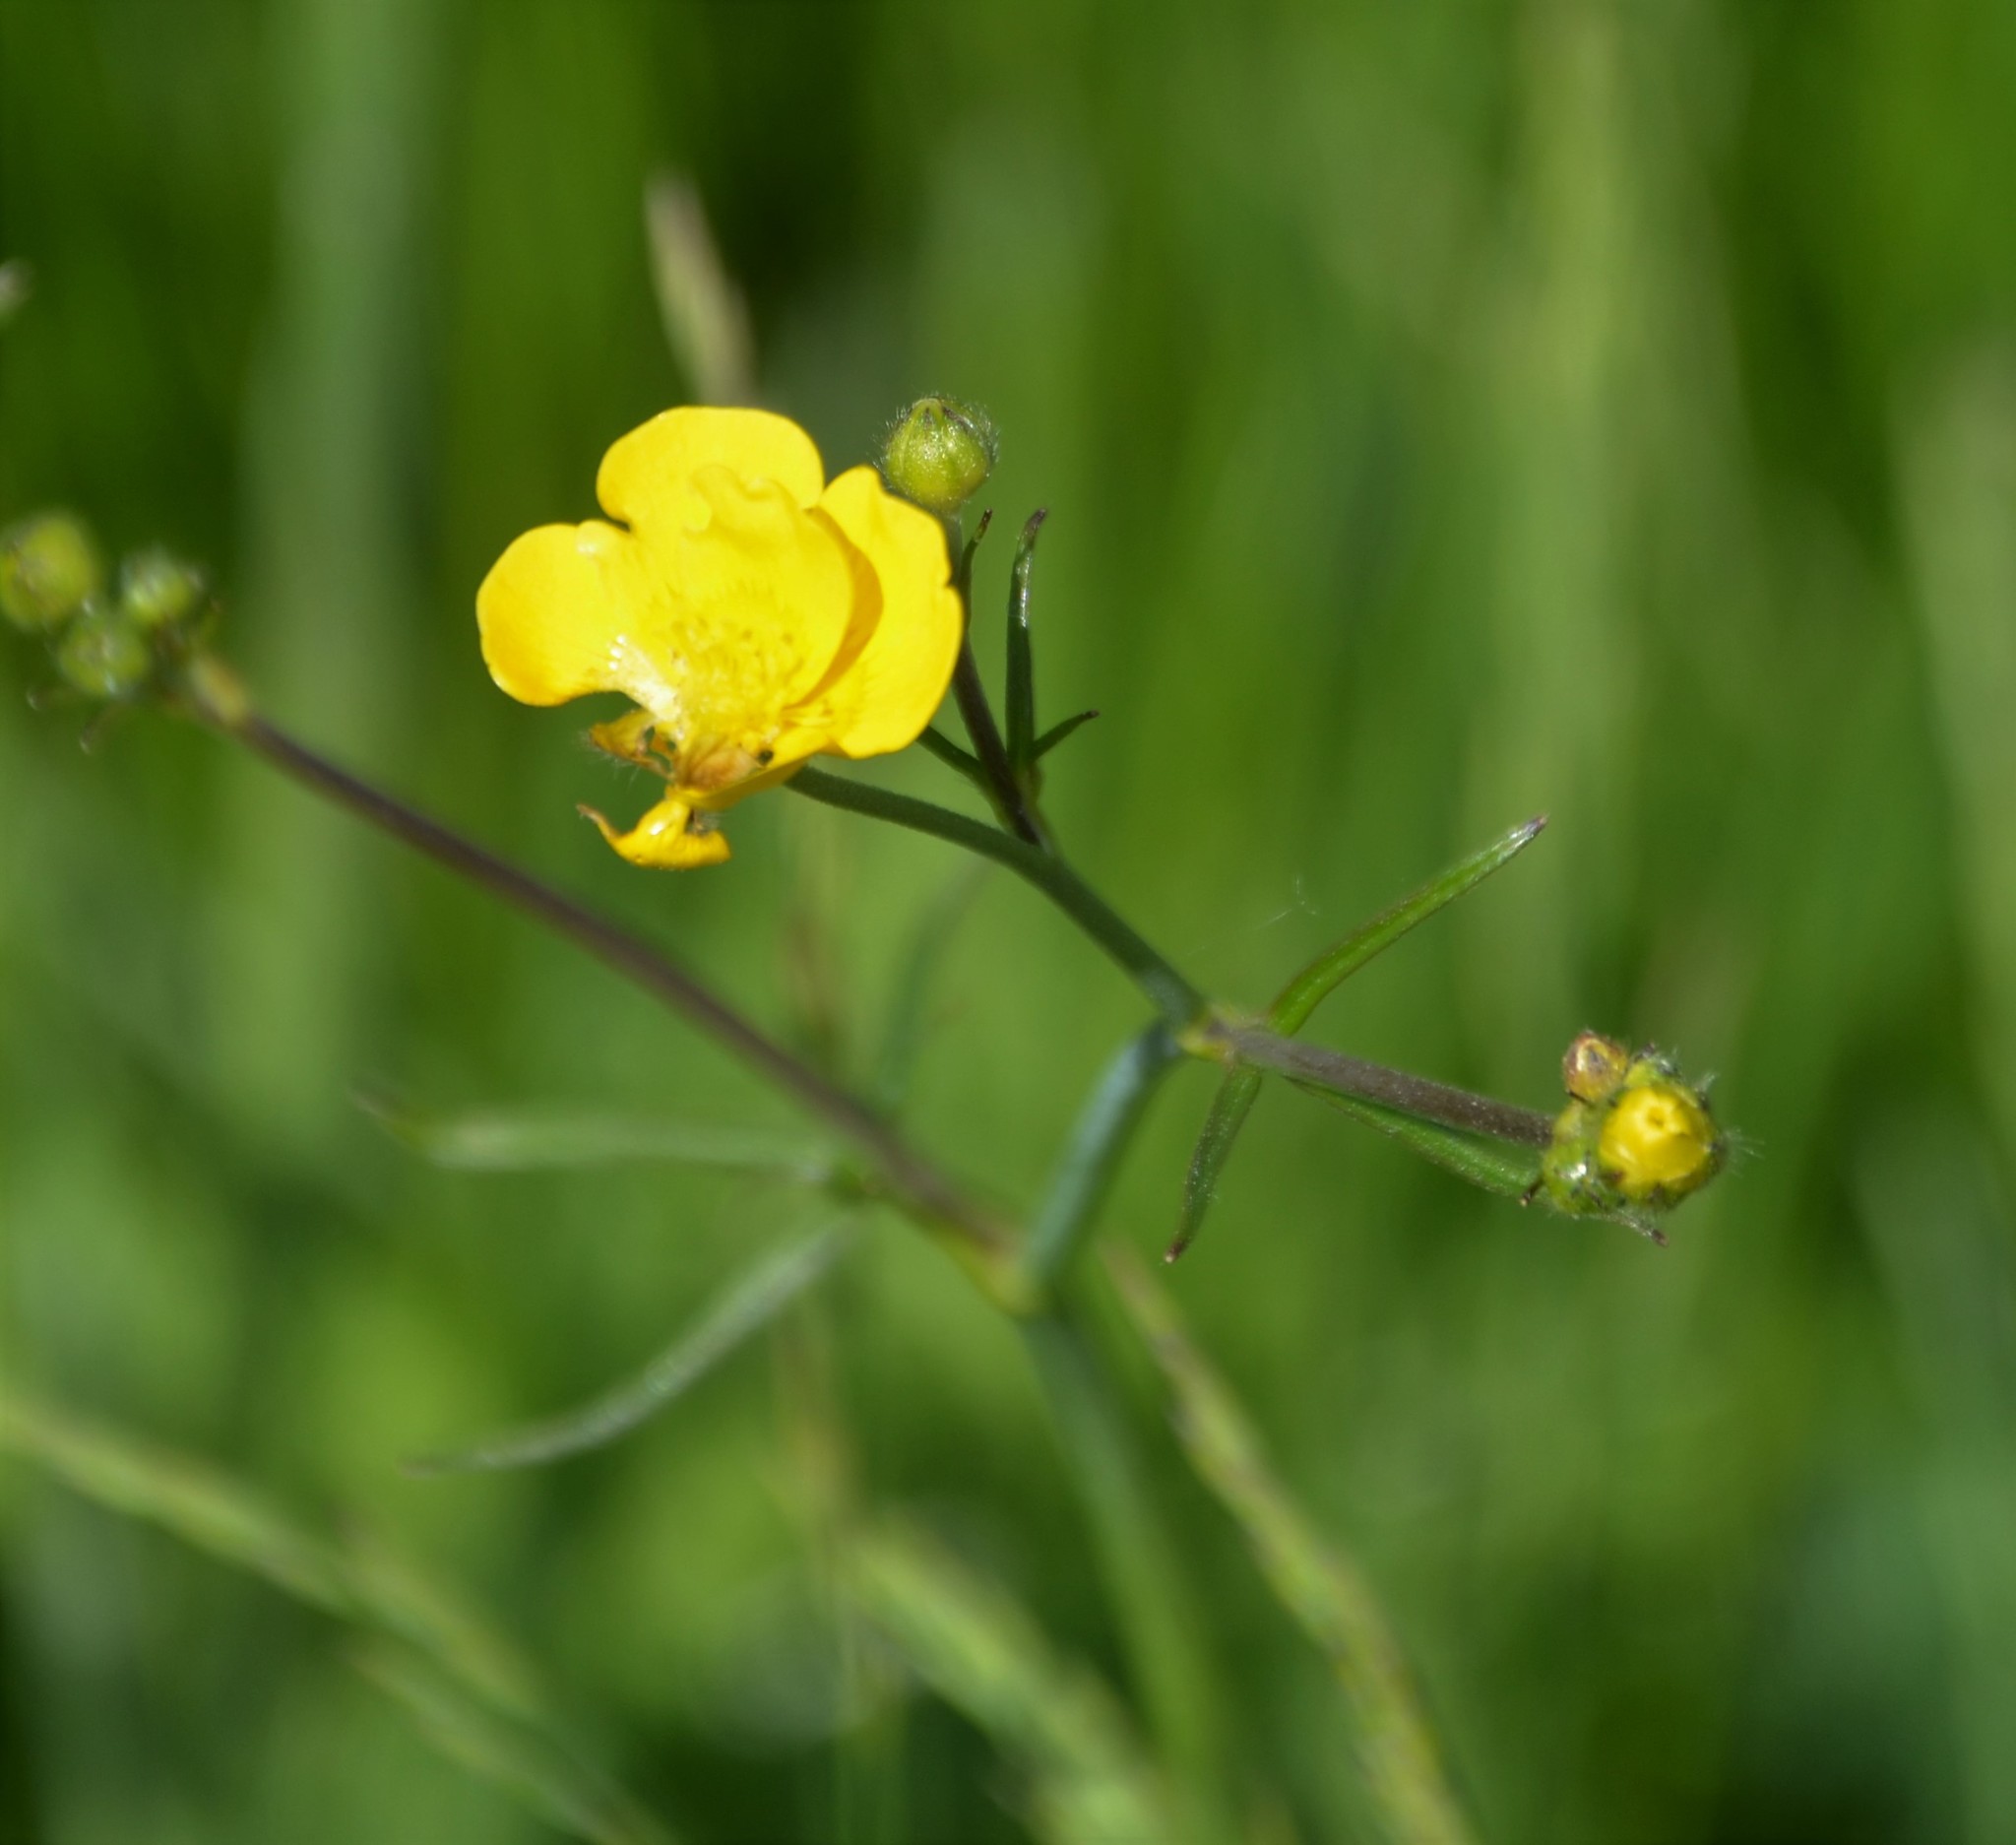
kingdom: Plantae
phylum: Tracheophyta
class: Magnoliopsida
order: Ranunculales
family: Ranunculaceae
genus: Ranunculus
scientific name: Ranunculus acris
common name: Meadow buttercup
